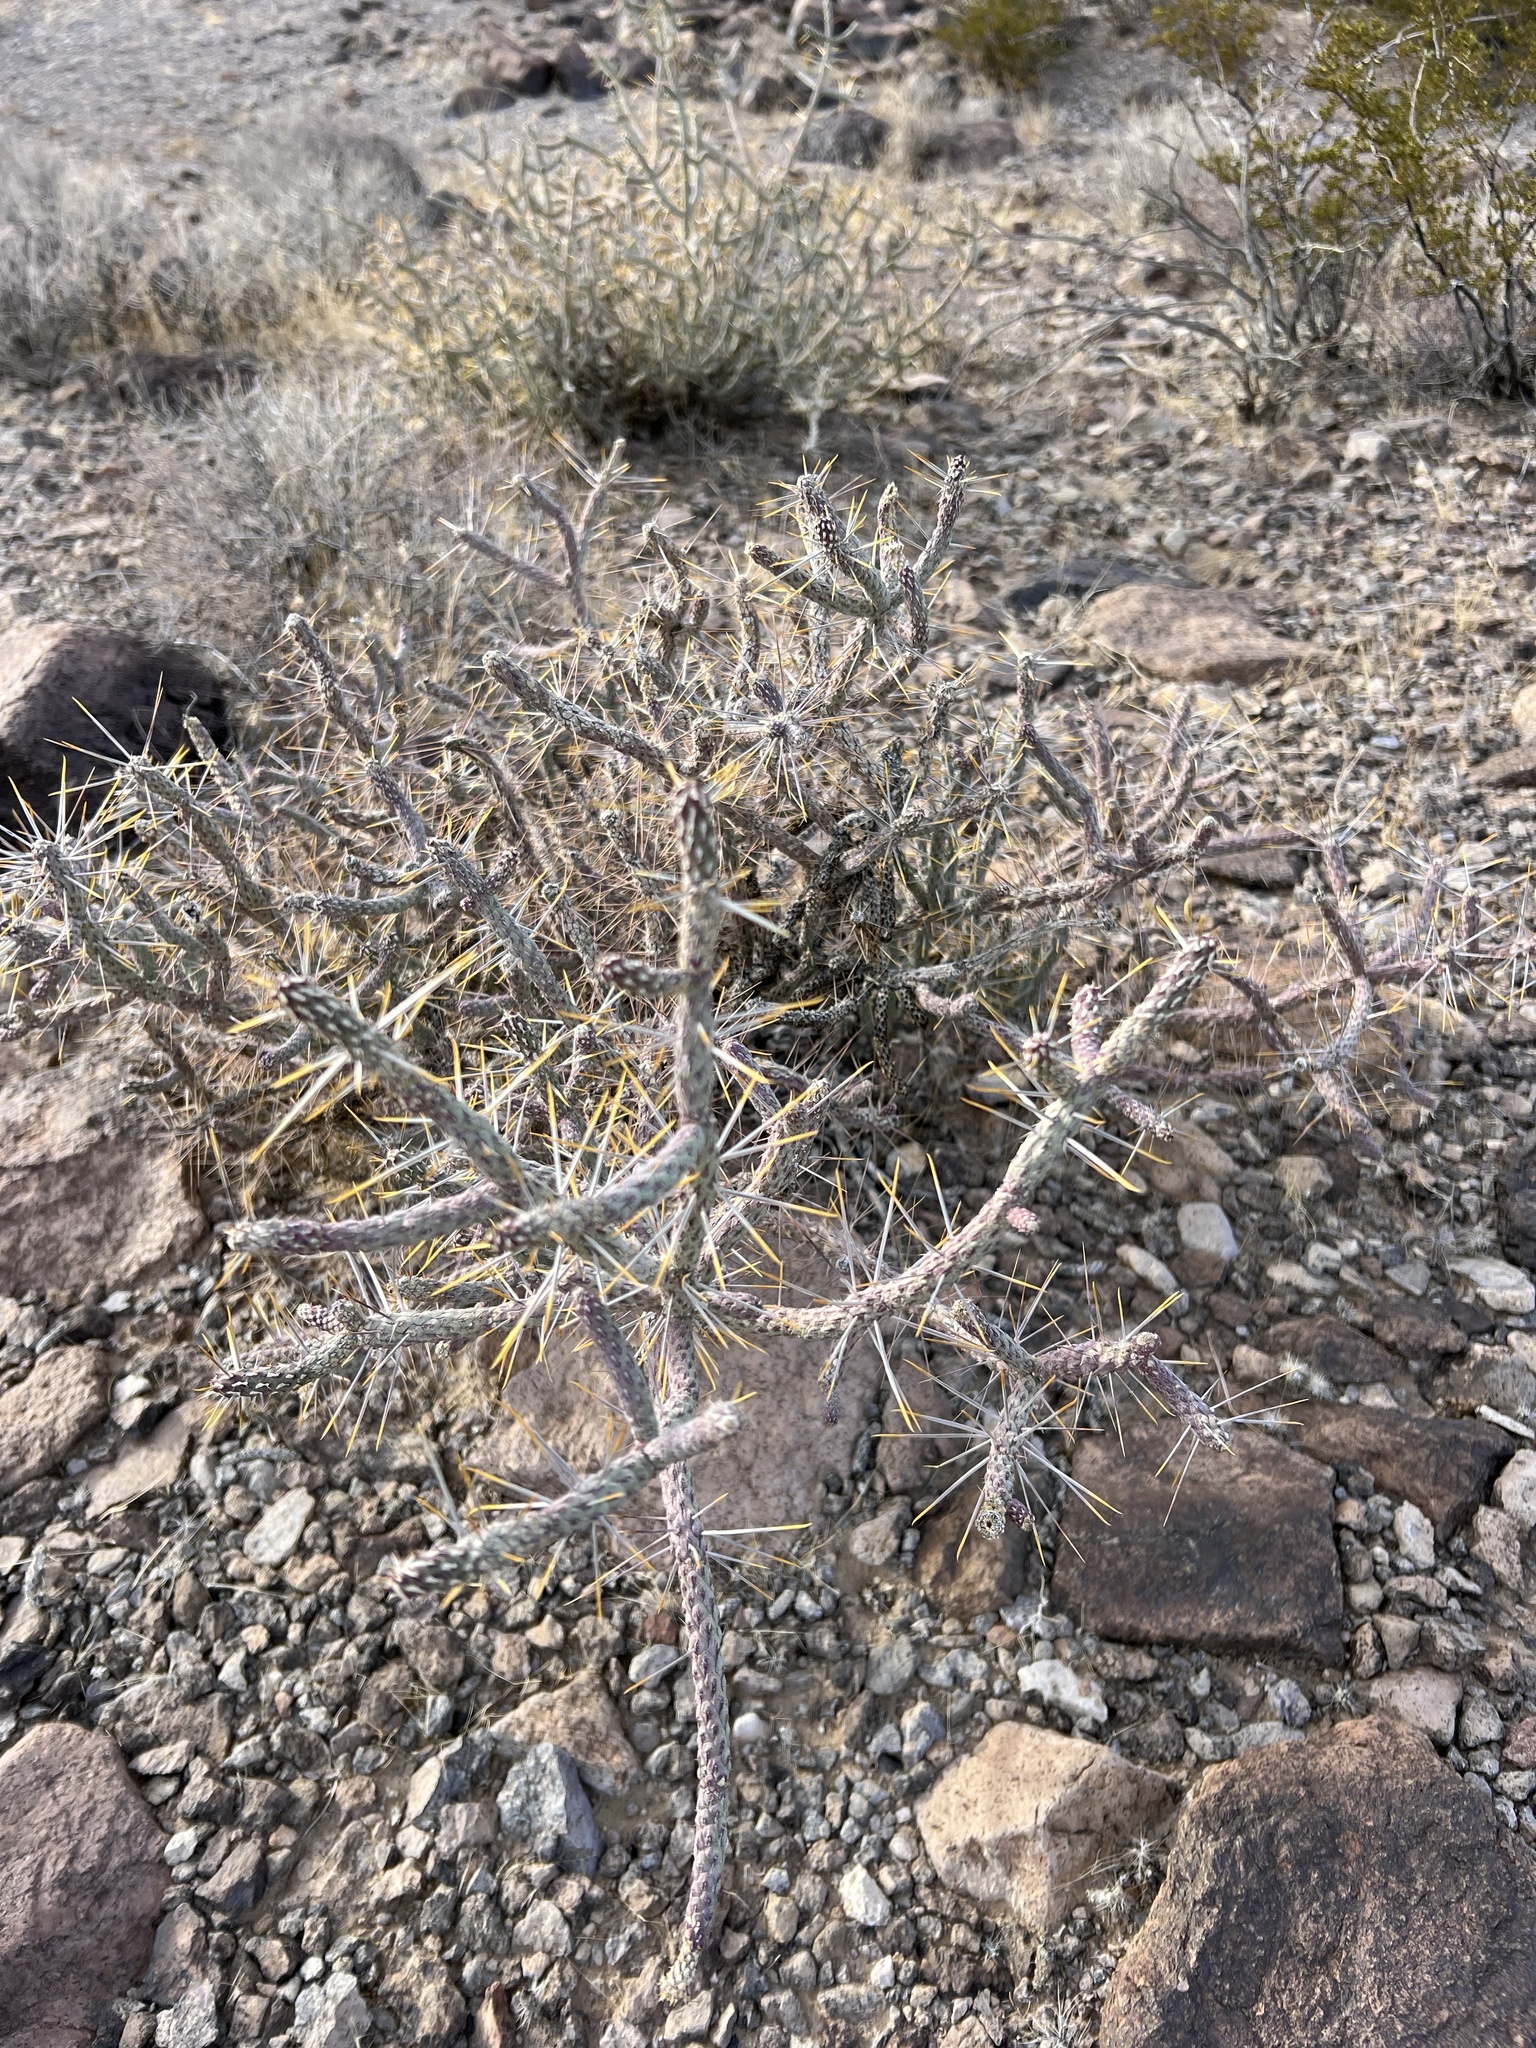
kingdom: Plantae
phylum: Tracheophyta
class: Magnoliopsida
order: Caryophyllales
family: Cactaceae
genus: Cylindropuntia
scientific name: Cylindropuntia ramosissima
